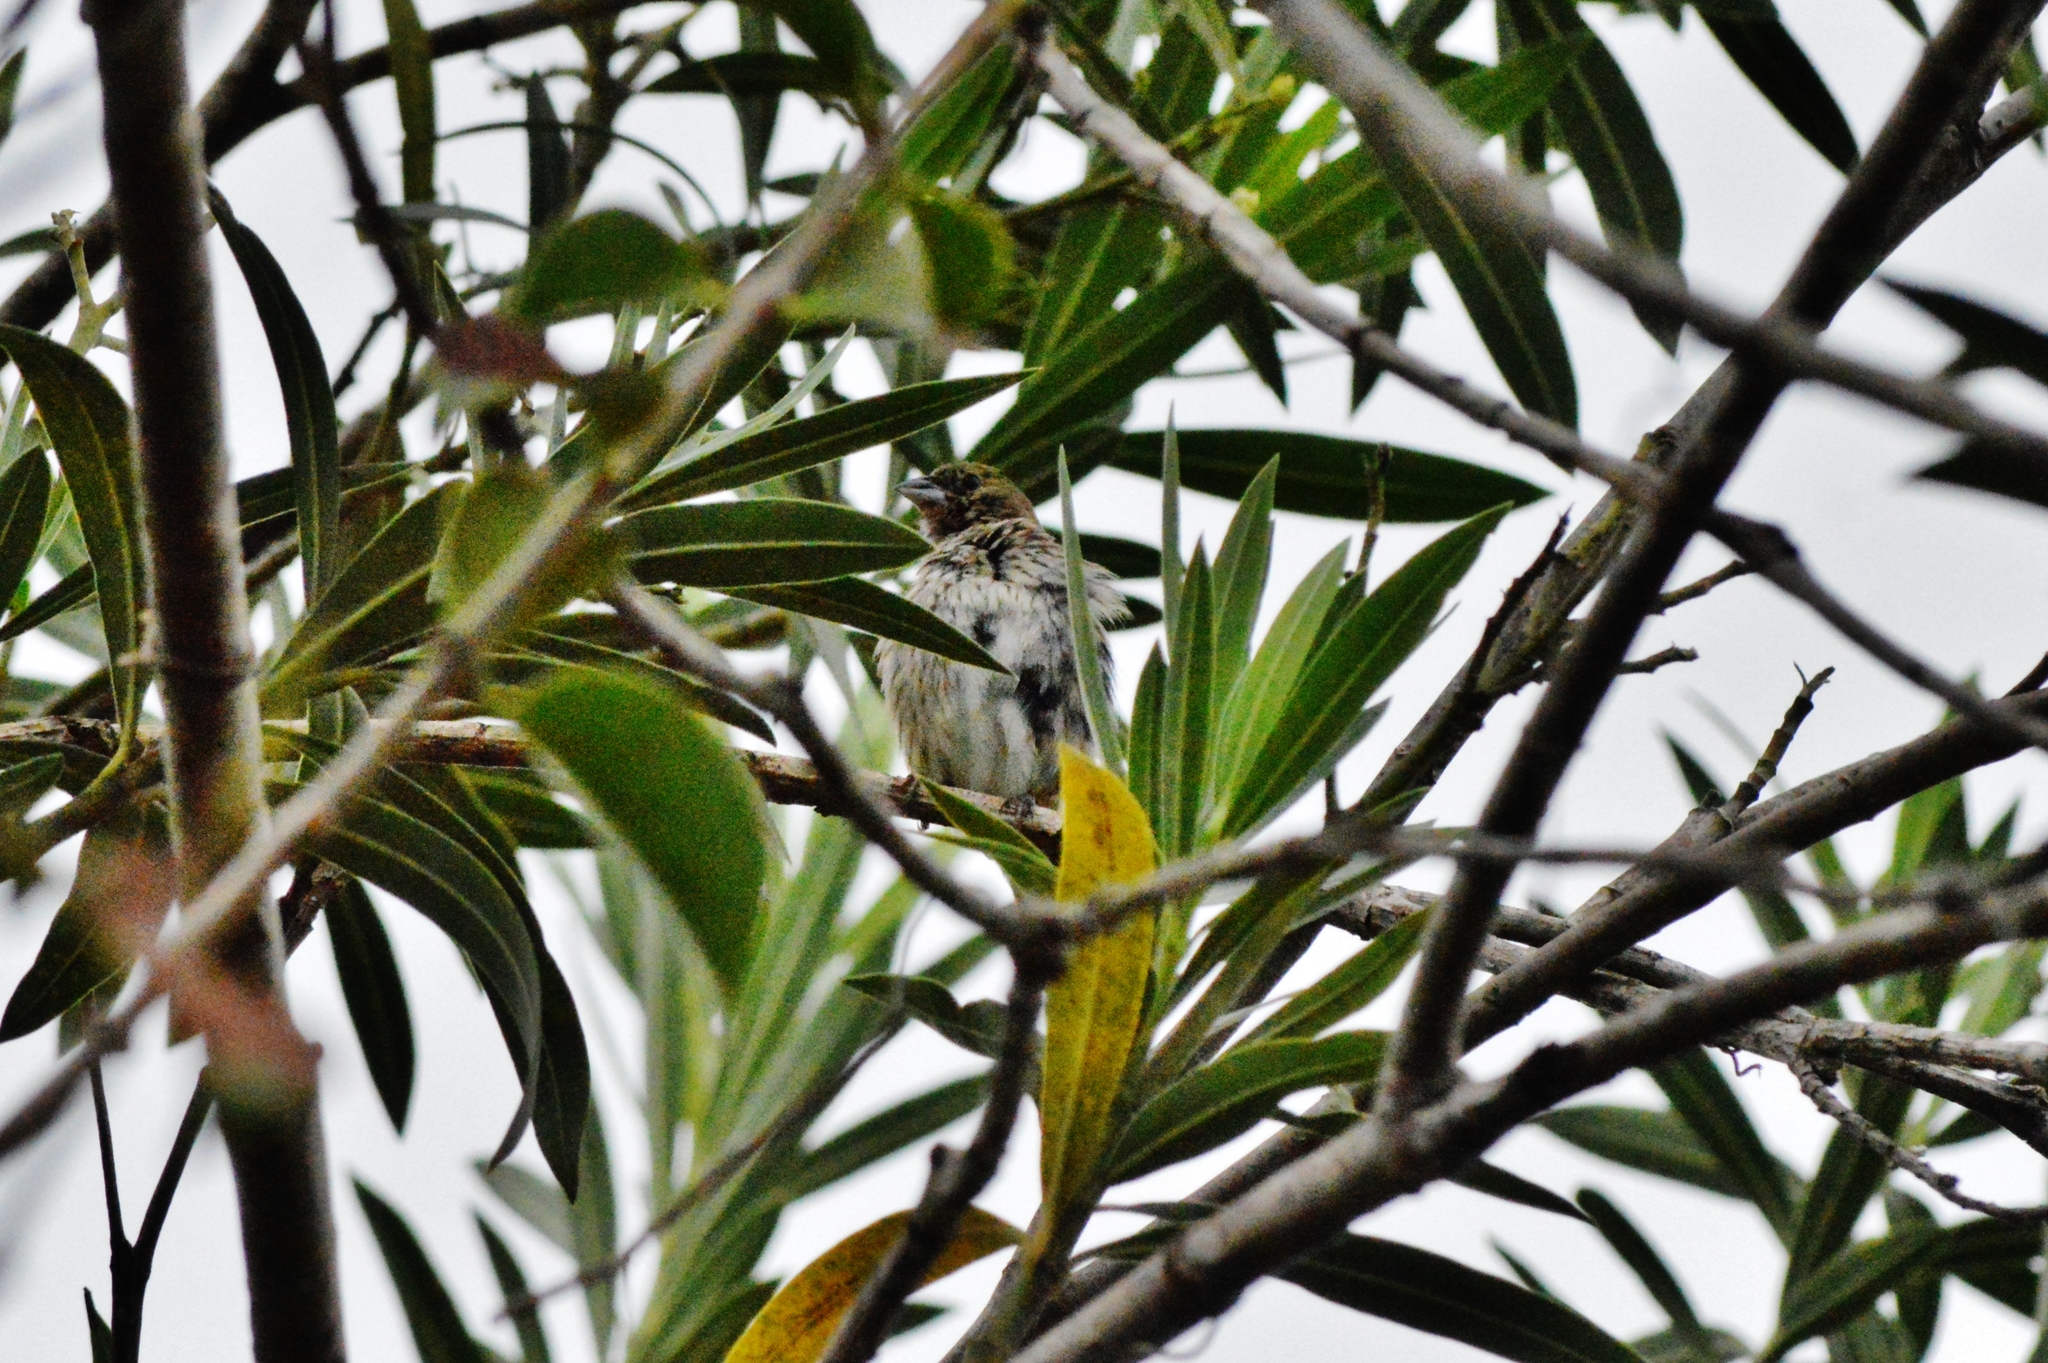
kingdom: Animalia
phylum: Chordata
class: Aves
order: Passeriformes
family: Thraupidae
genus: Volatinia
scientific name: Volatinia jacarina
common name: Blue-black grassquit
